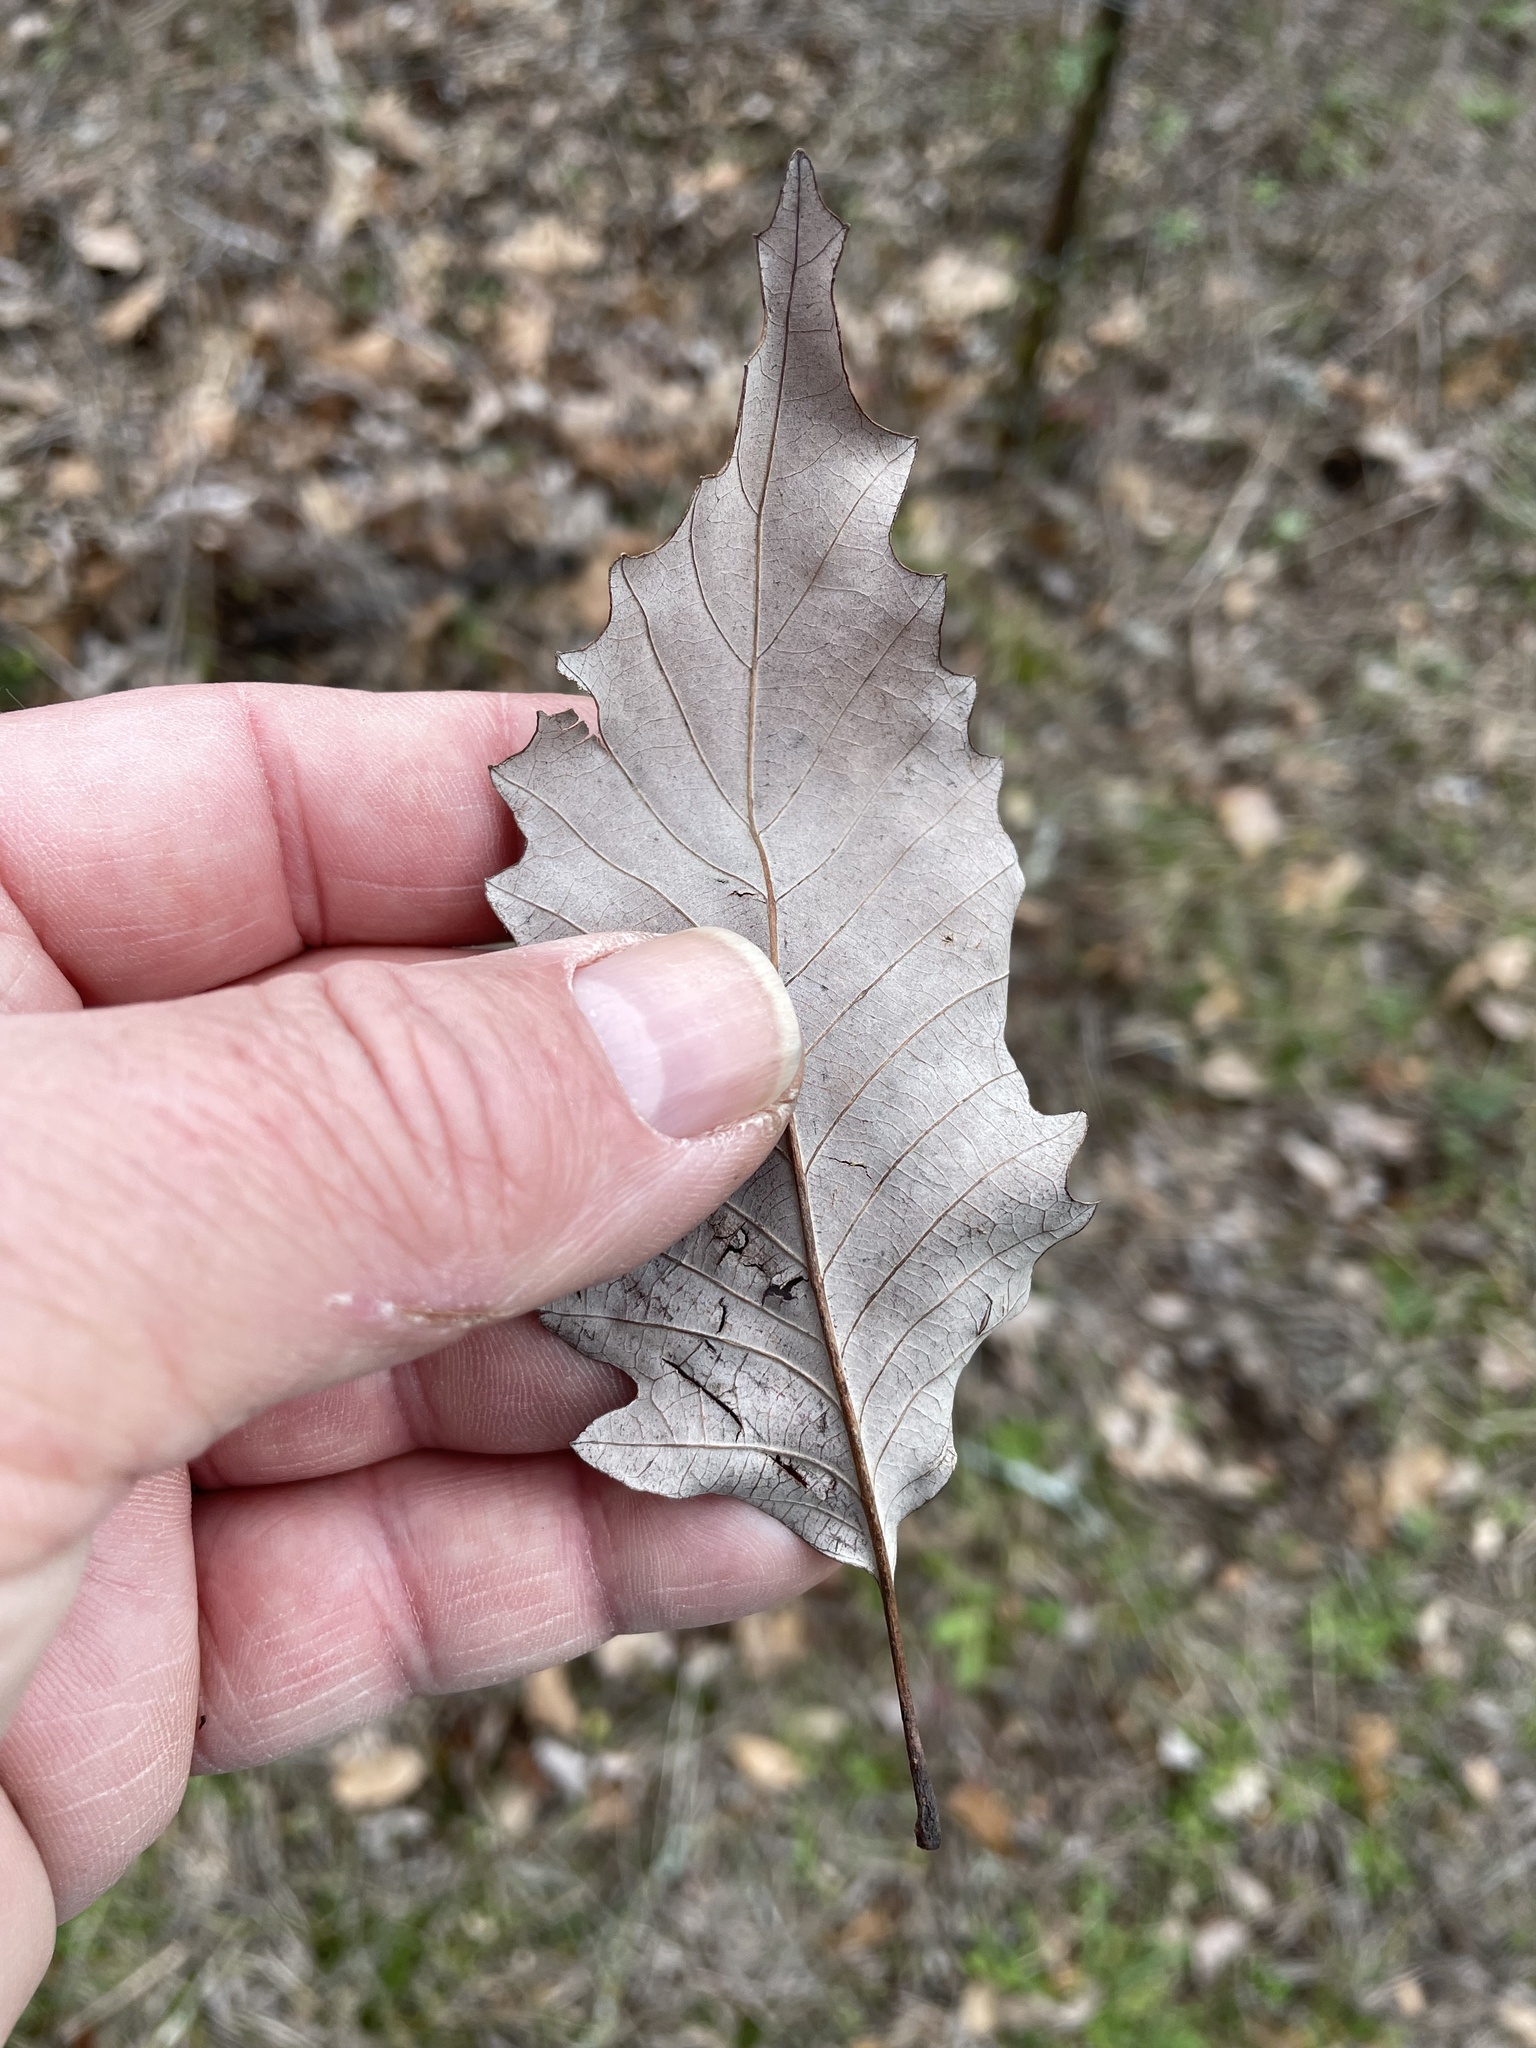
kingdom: Plantae
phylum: Tracheophyta
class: Magnoliopsida
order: Fagales
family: Fagaceae
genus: Quercus
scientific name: Quercus muehlenbergii
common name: Chinkapin oak
